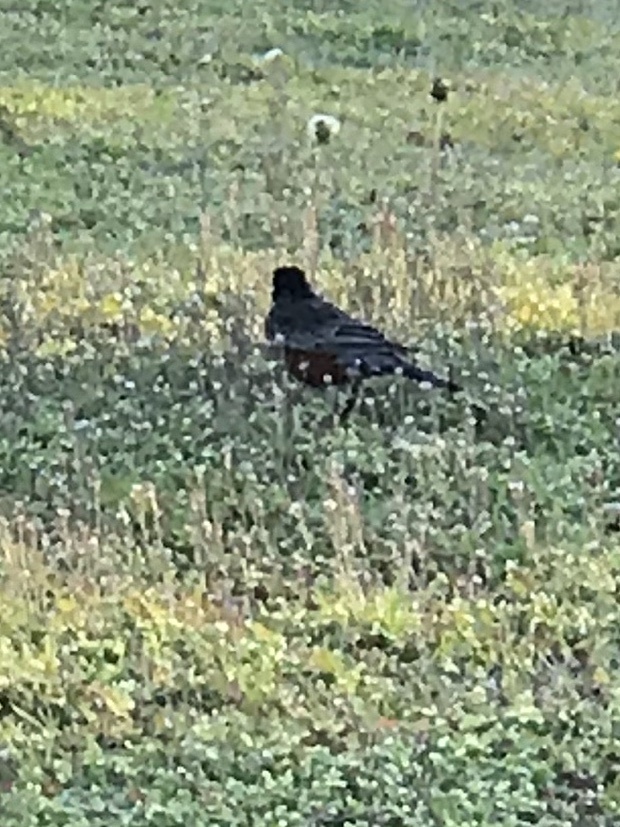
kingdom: Animalia
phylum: Chordata
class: Aves
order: Passeriformes
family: Turdidae
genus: Turdus
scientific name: Turdus migratorius
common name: American robin
